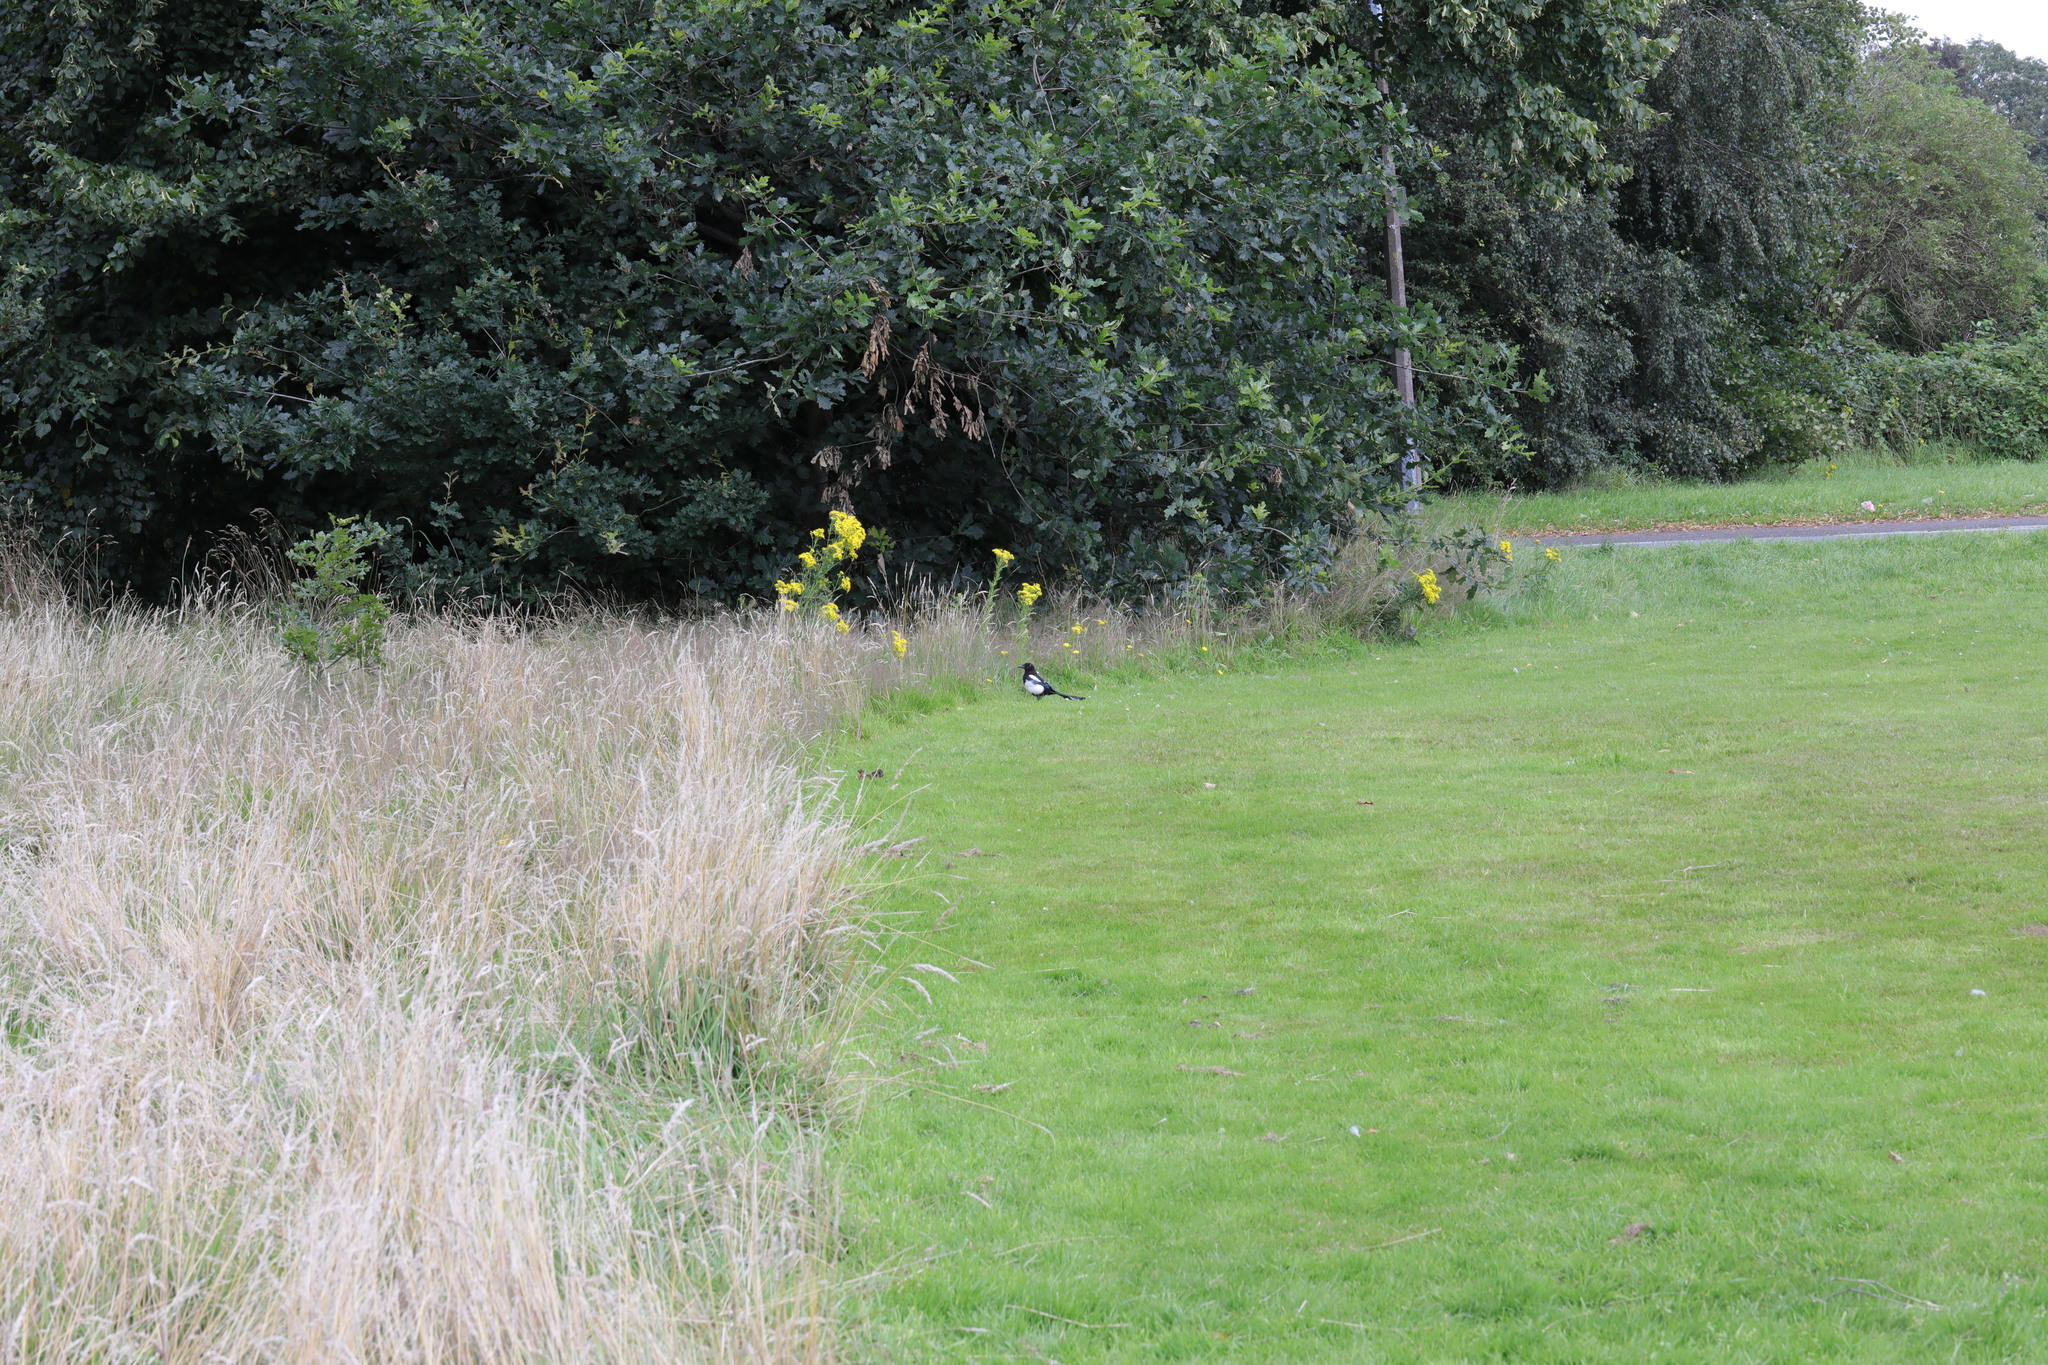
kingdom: Animalia
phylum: Chordata
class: Aves
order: Passeriformes
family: Corvidae
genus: Pica
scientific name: Pica pica
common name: Eurasian magpie
